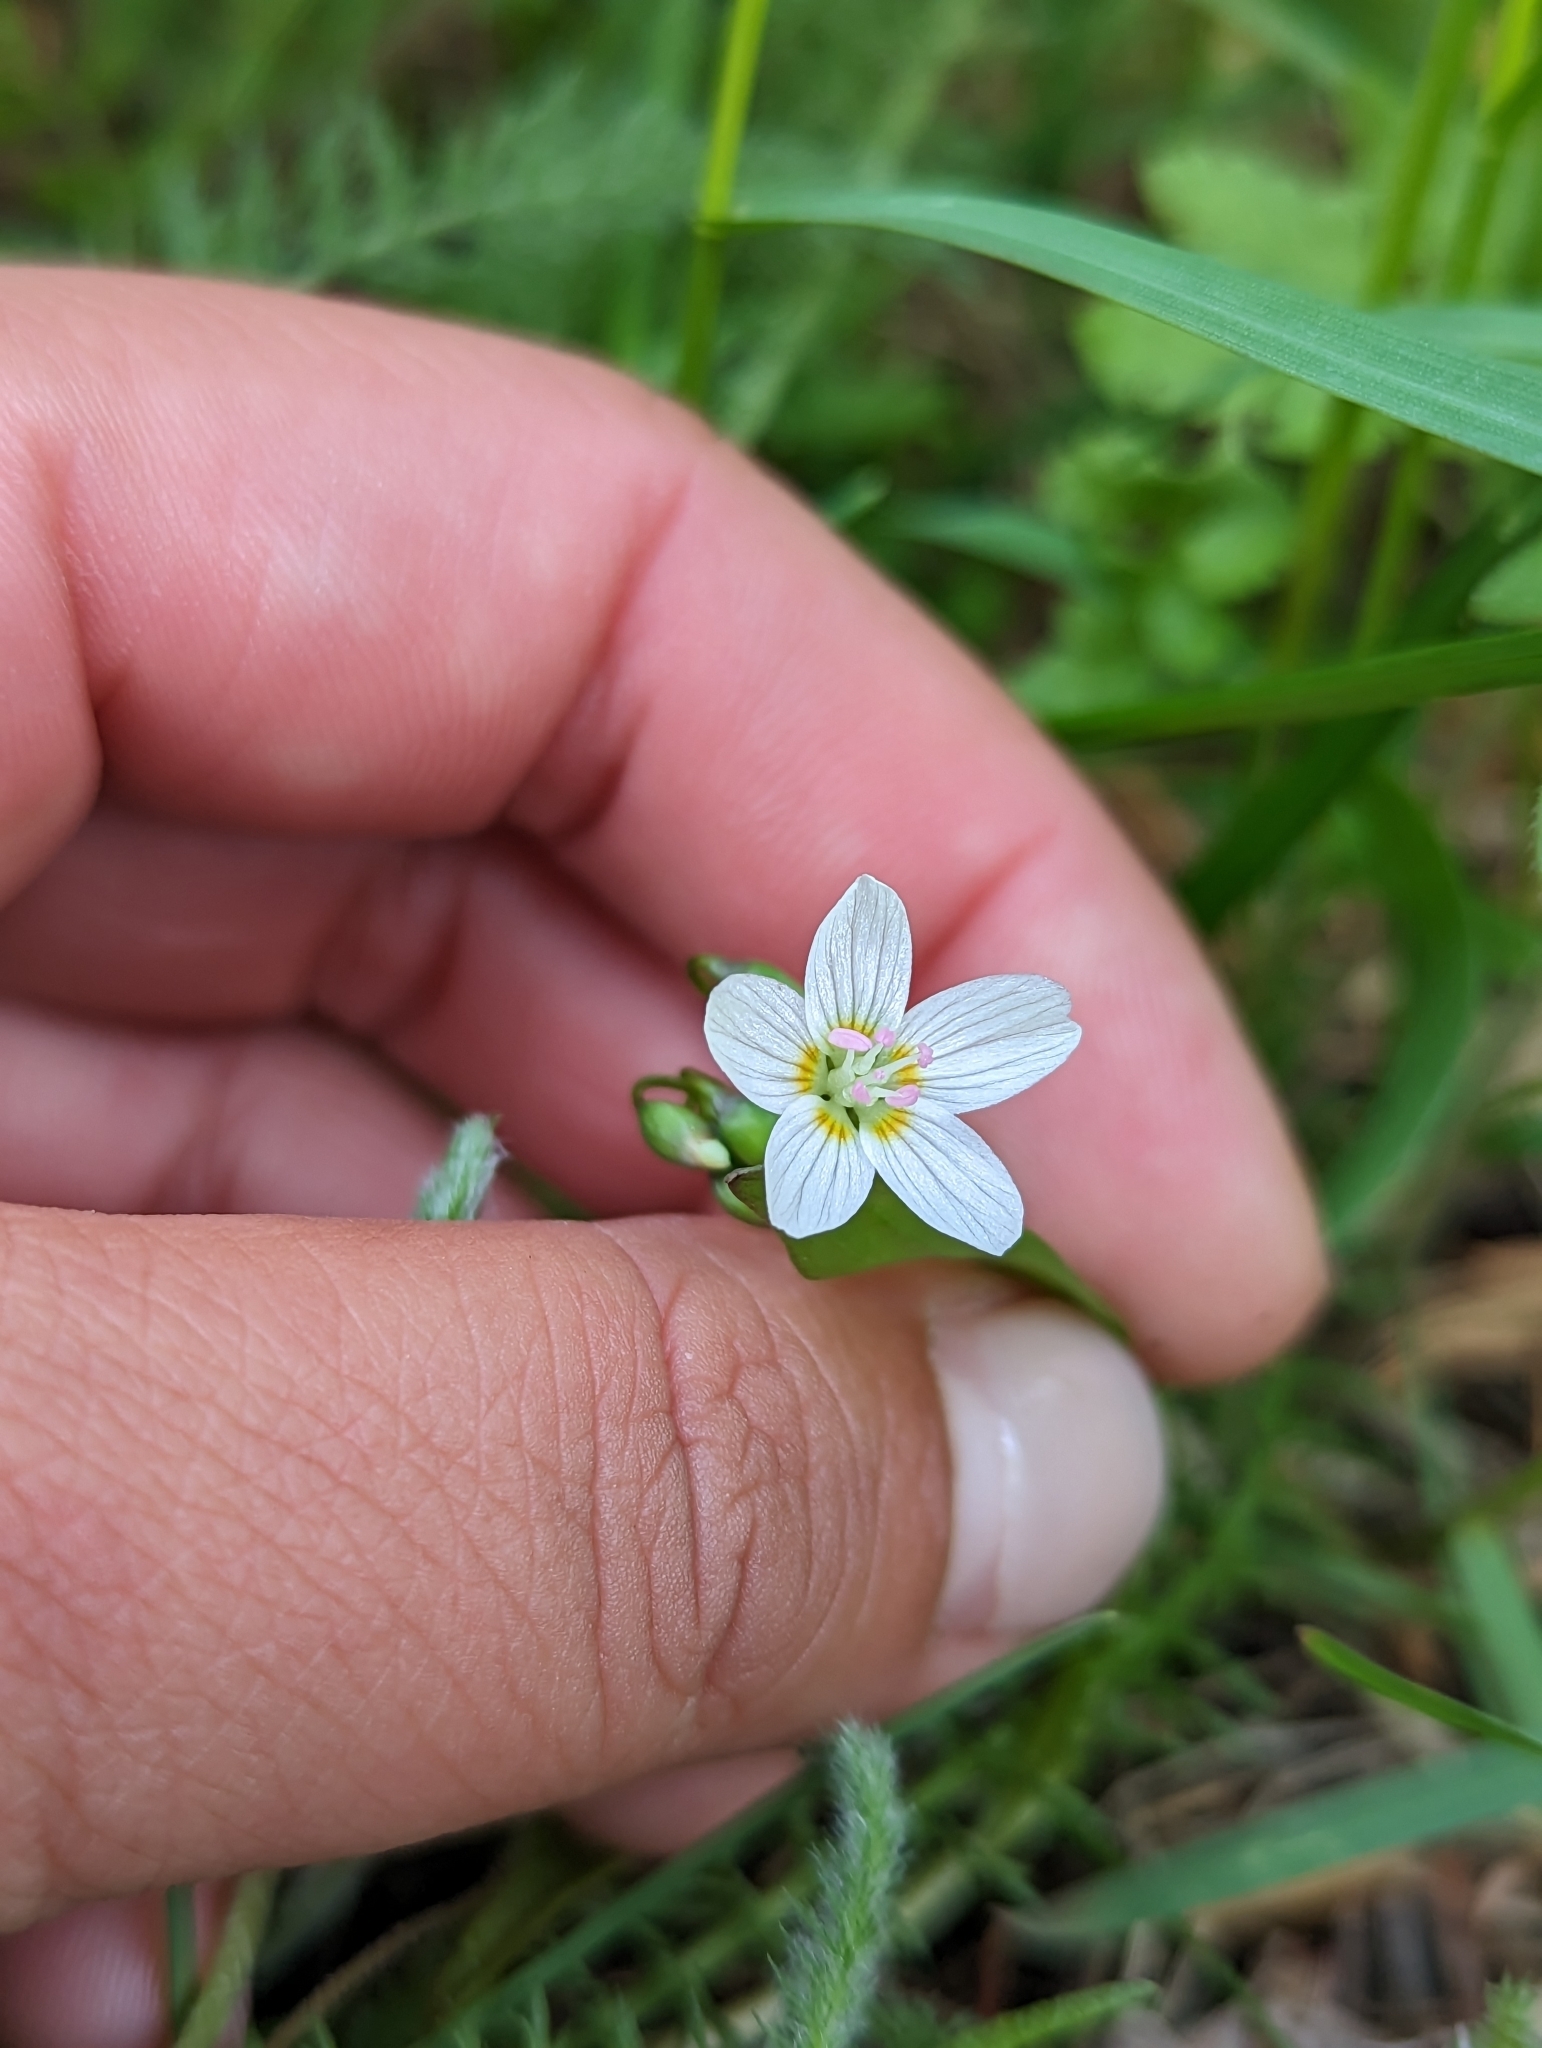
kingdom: Plantae
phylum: Tracheophyta
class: Magnoliopsida
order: Caryophyllales
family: Montiaceae
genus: Claytonia
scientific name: Claytonia lanceolata
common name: Western spring-beauty
